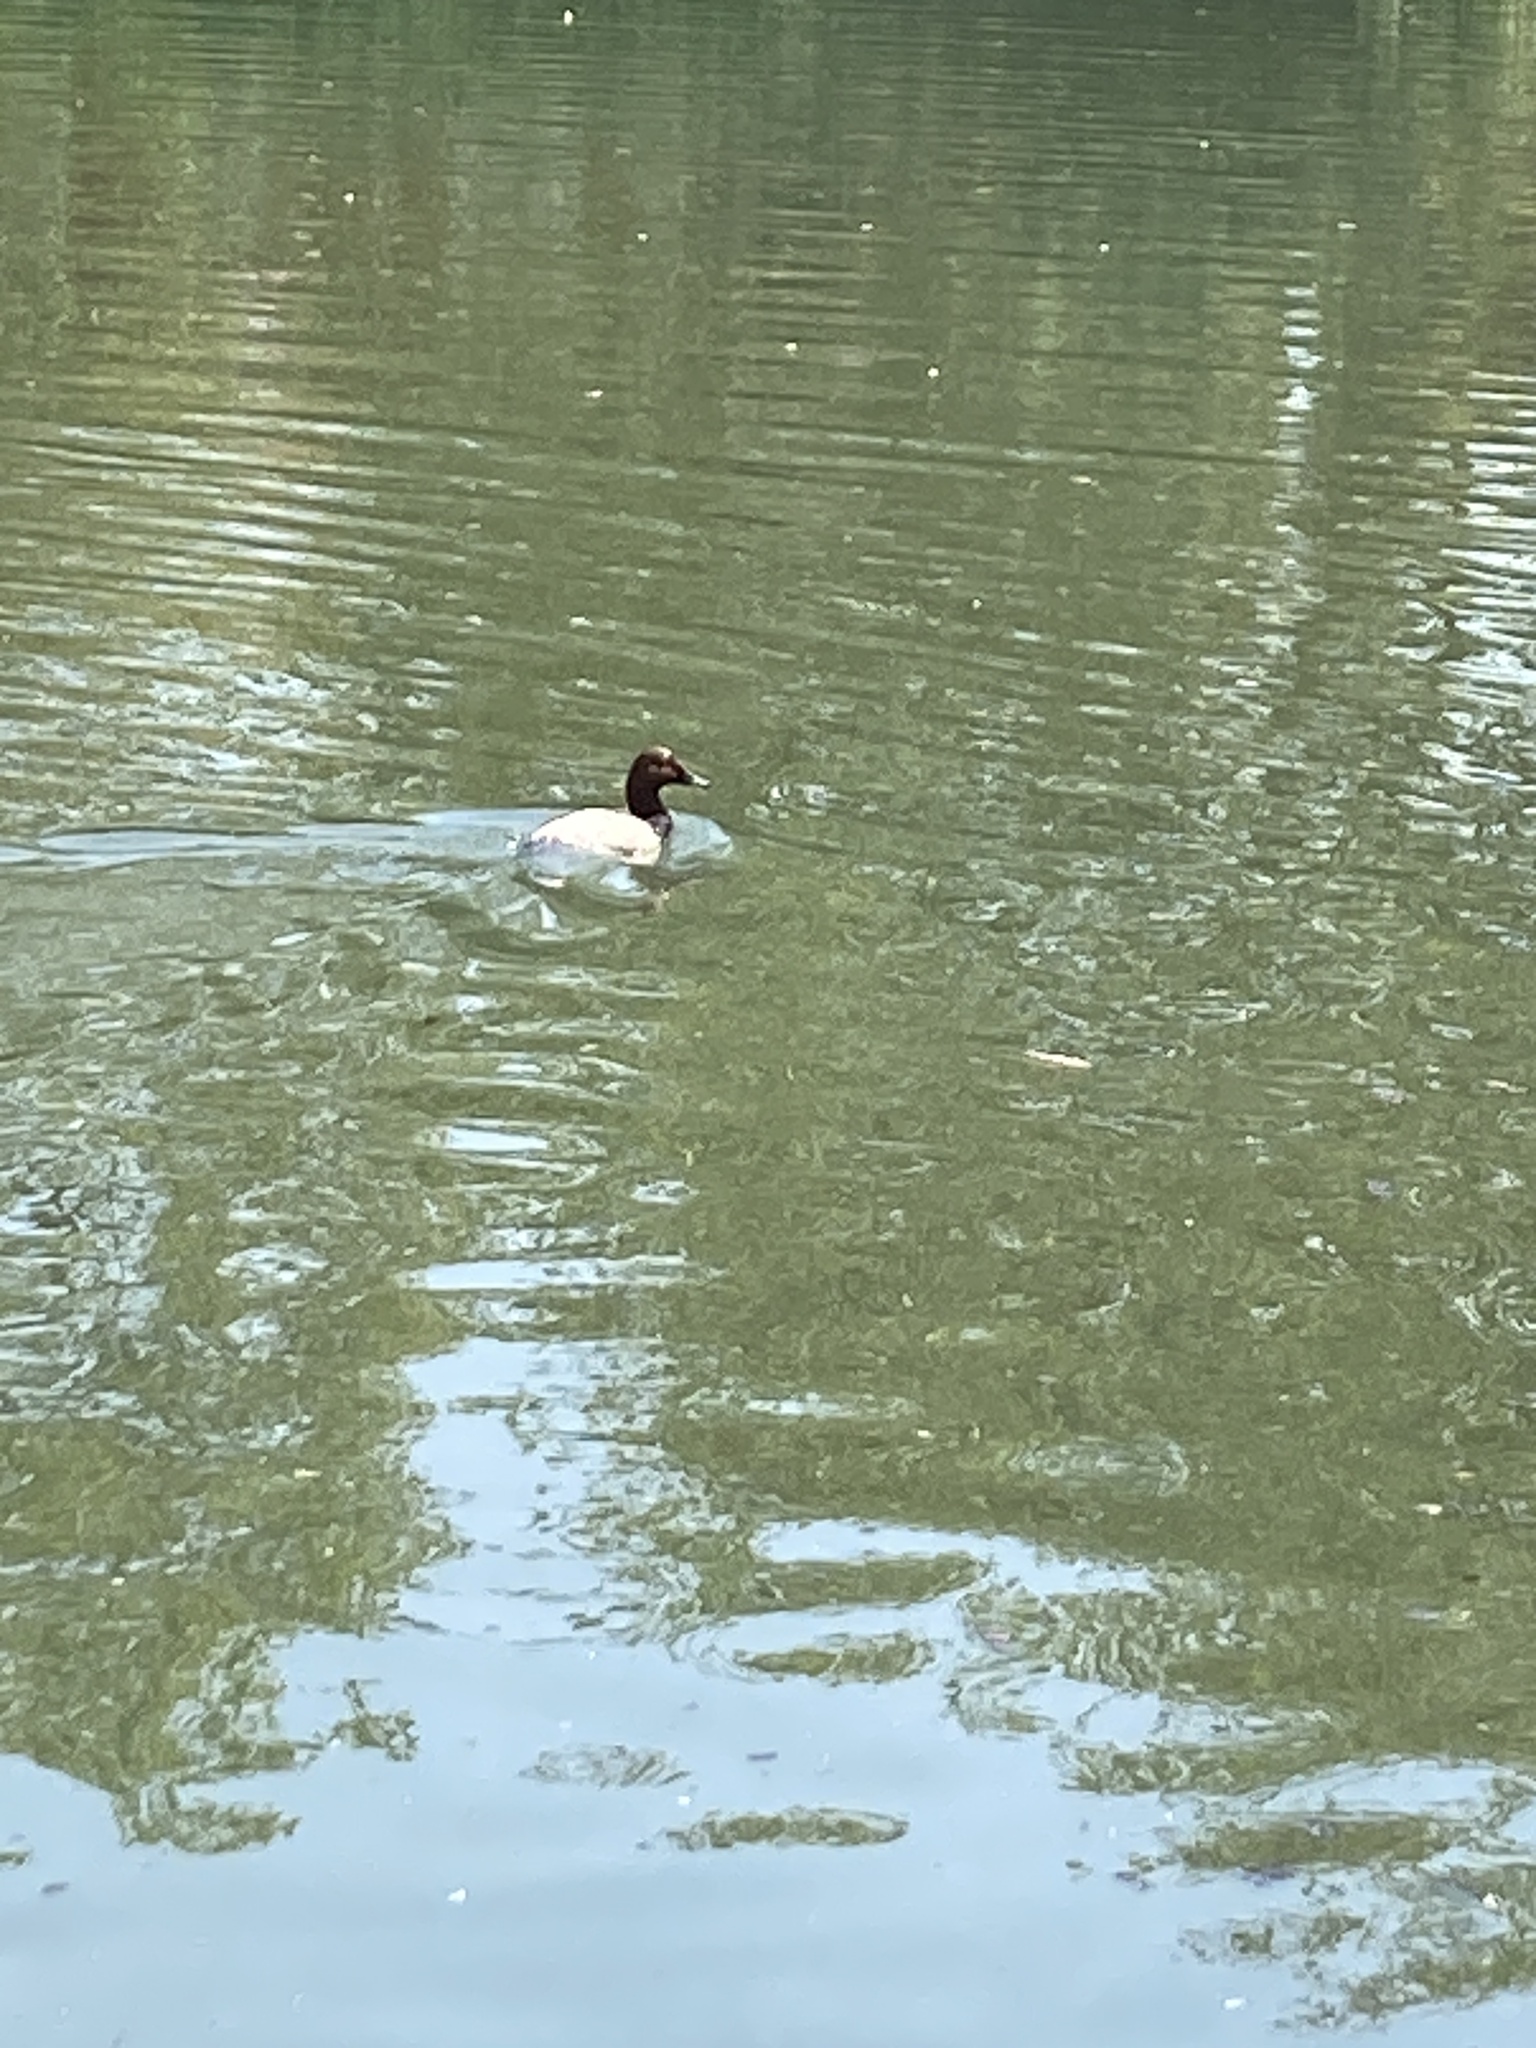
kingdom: Animalia
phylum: Chordata
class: Aves
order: Anseriformes
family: Anatidae
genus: Aythya
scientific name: Aythya ferina
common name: Common pochard
